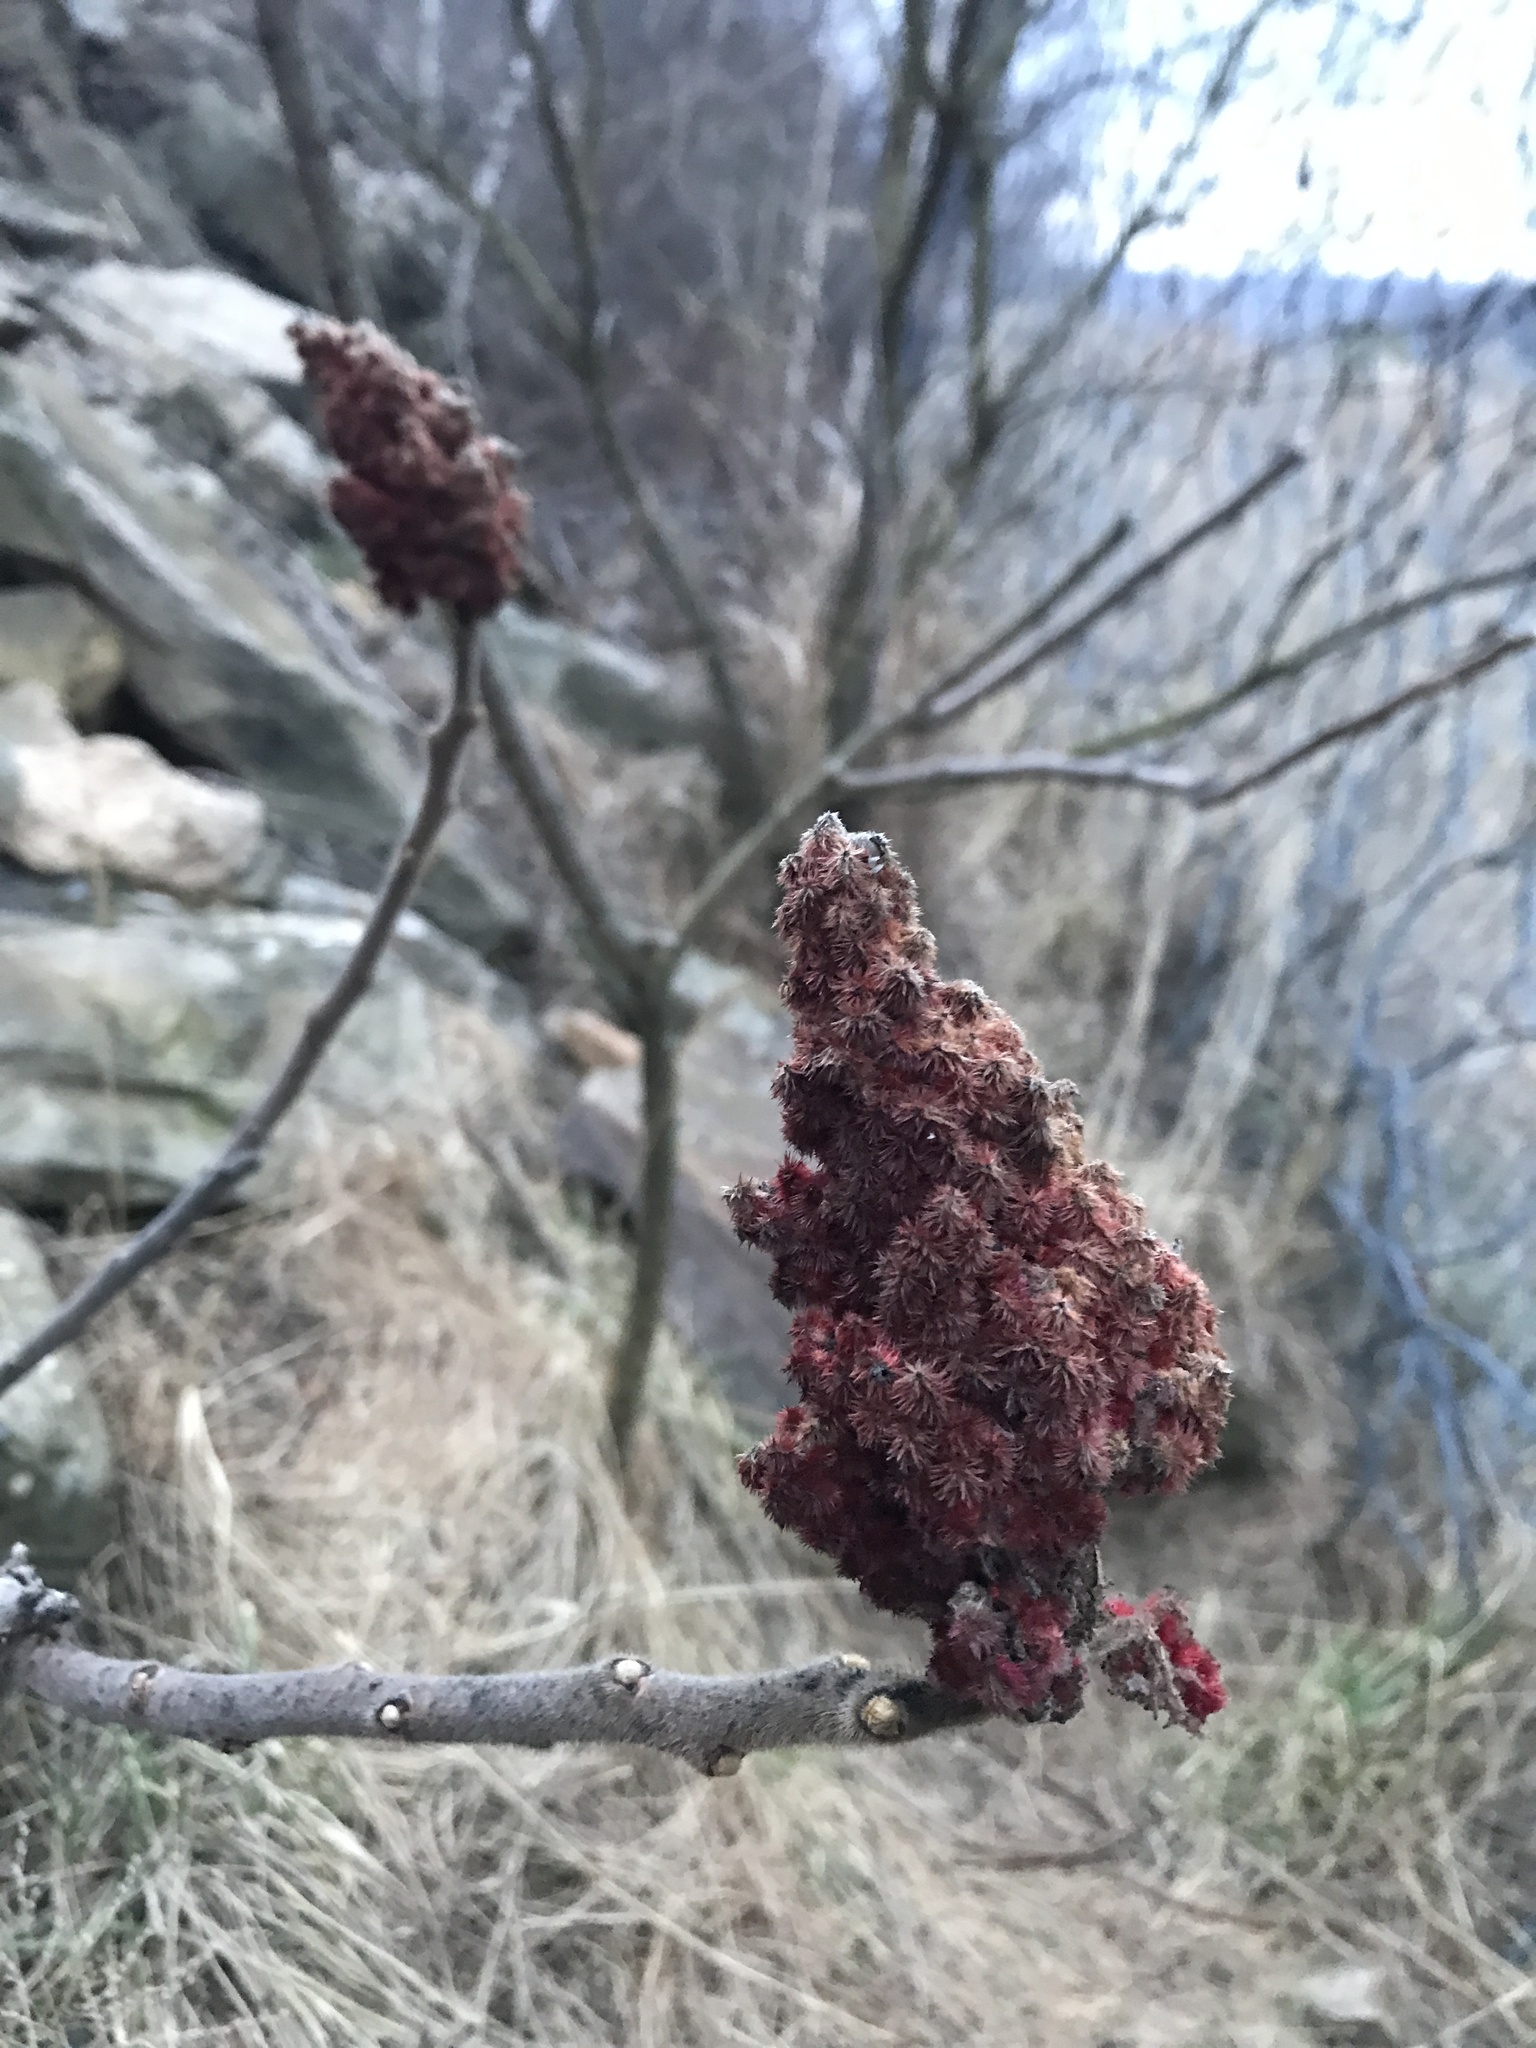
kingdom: Plantae
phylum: Tracheophyta
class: Magnoliopsida
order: Sapindales
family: Anacardiaceae
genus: Rhus
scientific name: Rhus typhina
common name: Staghorn sumac
